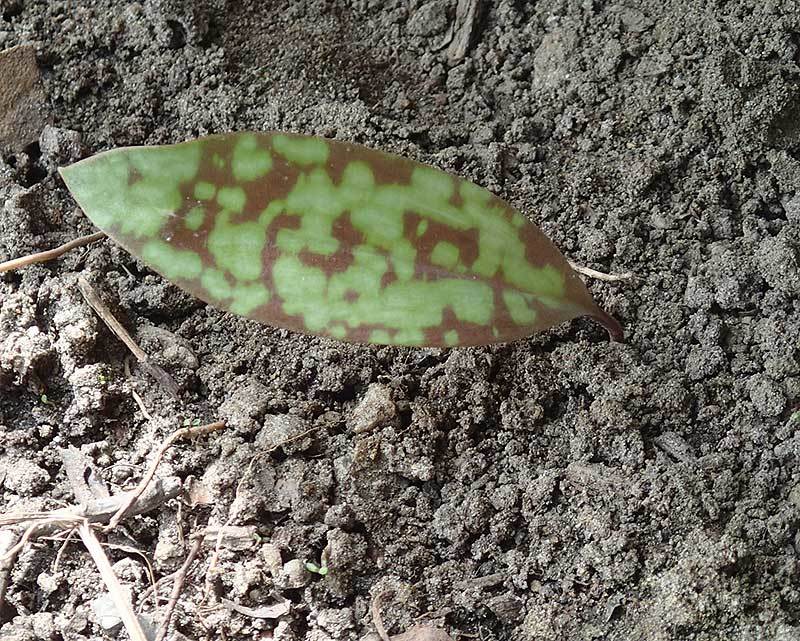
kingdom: Plantae
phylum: Tracheophyta
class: Liliopsida
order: Liliales
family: Liliaceae
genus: Erythronium
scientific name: Erythronium americanum
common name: Yellow adder's-tongue
